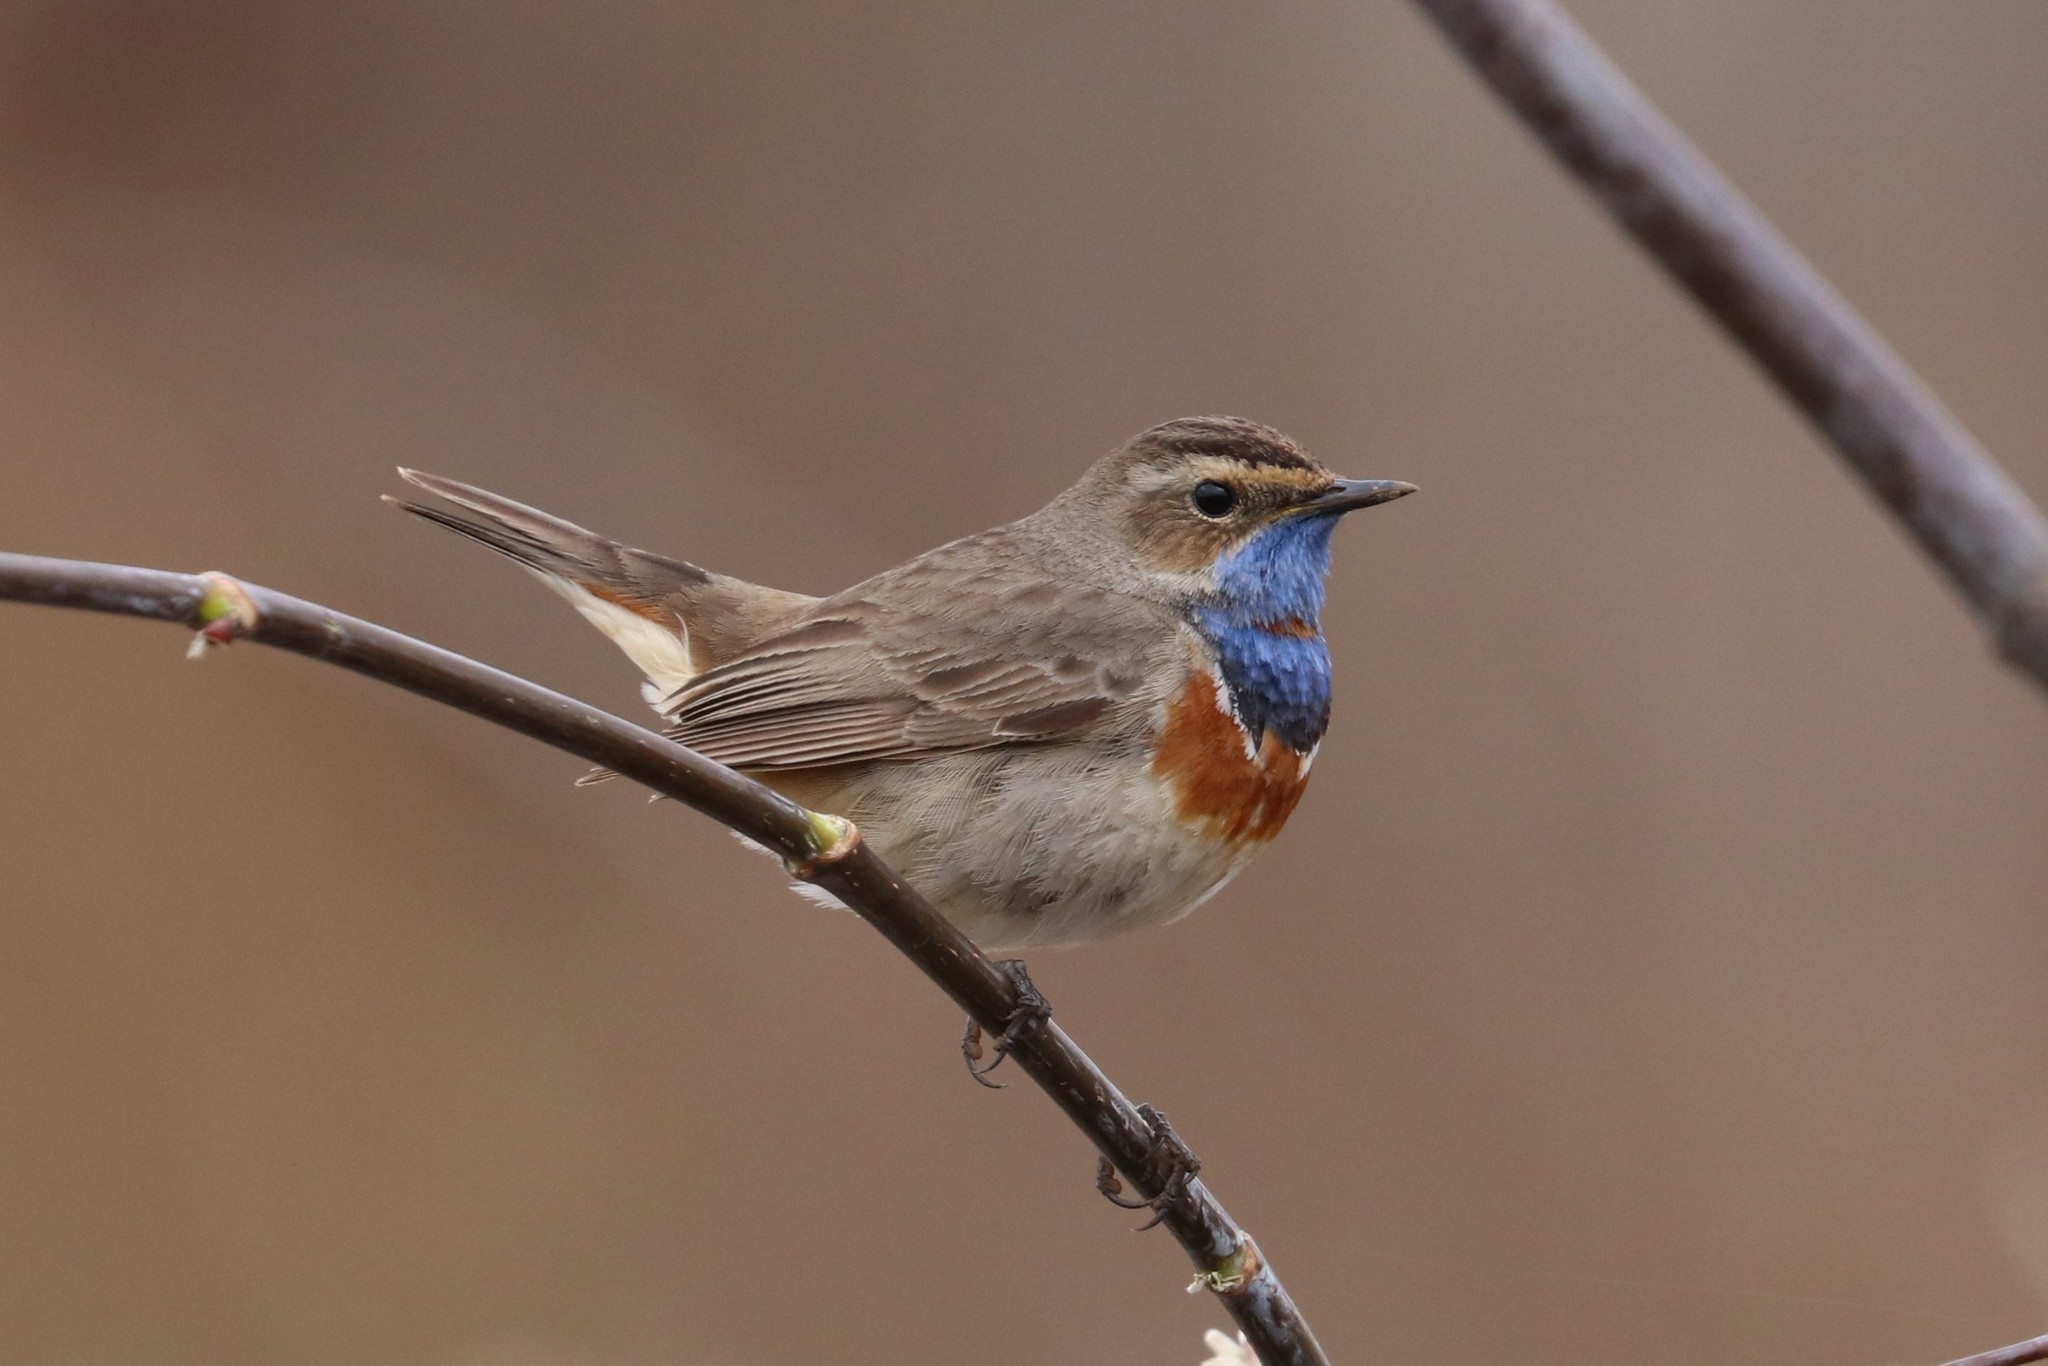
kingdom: Animalia
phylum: Chordata
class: Aves
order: Passeriformes
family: Muscicapidae
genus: Luscinia
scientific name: Luscinia svecica
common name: Bluethroat
